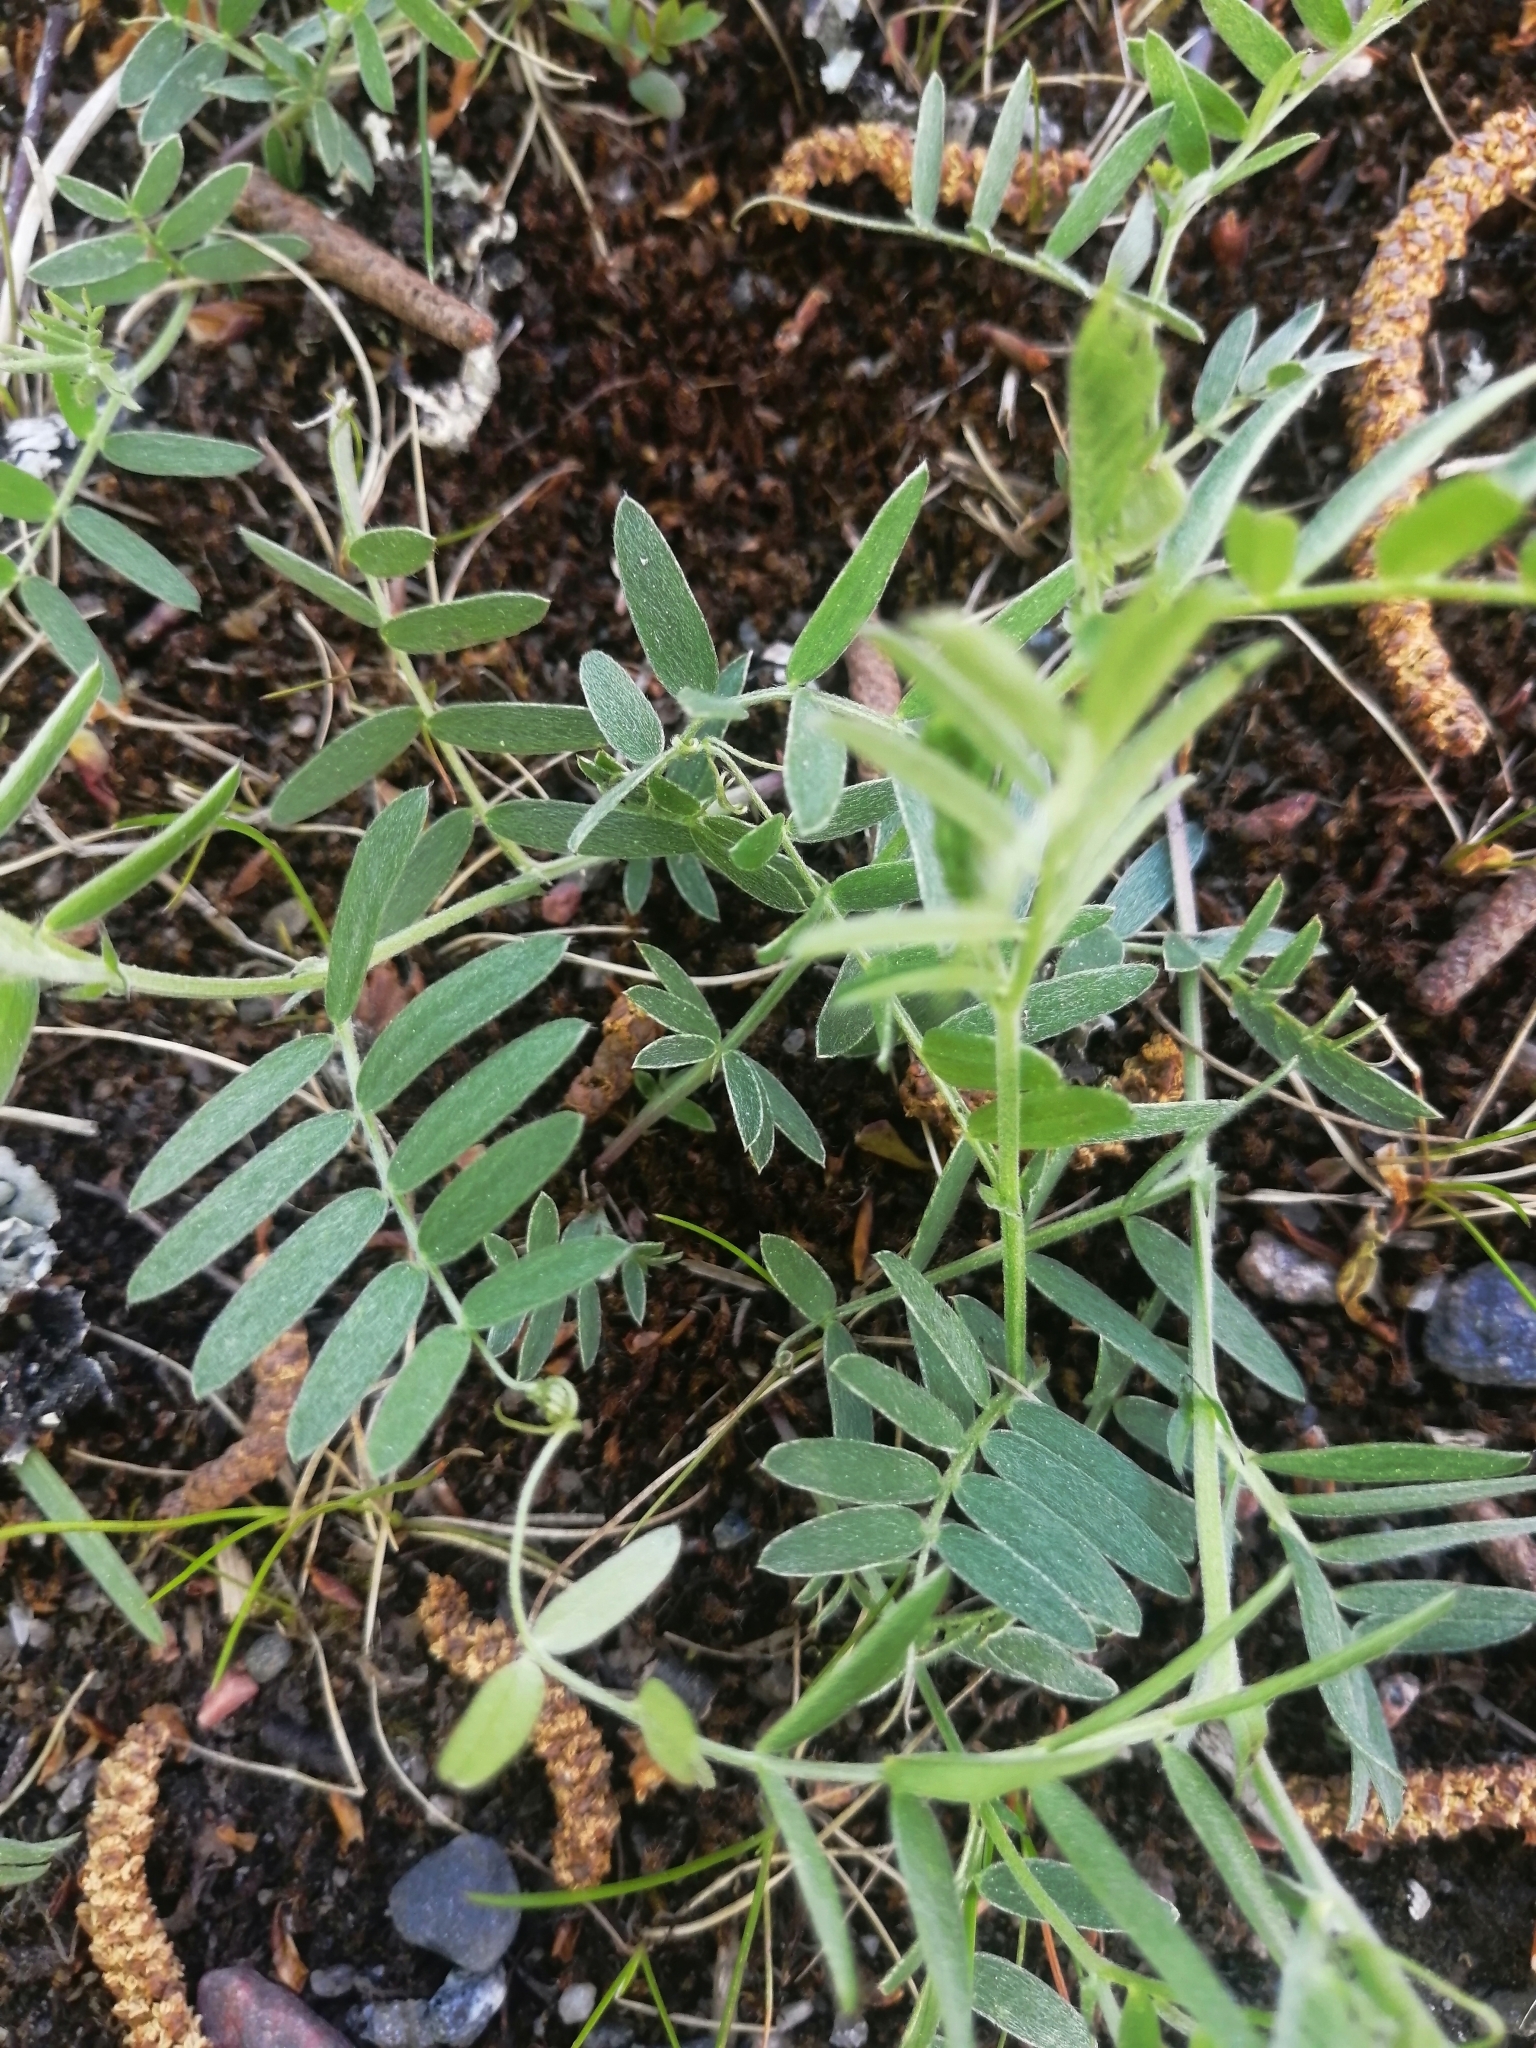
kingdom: Plantae
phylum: Tracheophyta
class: Magnoliopsida
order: Fabales
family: Fabaceae
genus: Vicia
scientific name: Vicia cracca
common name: Bird vetch
